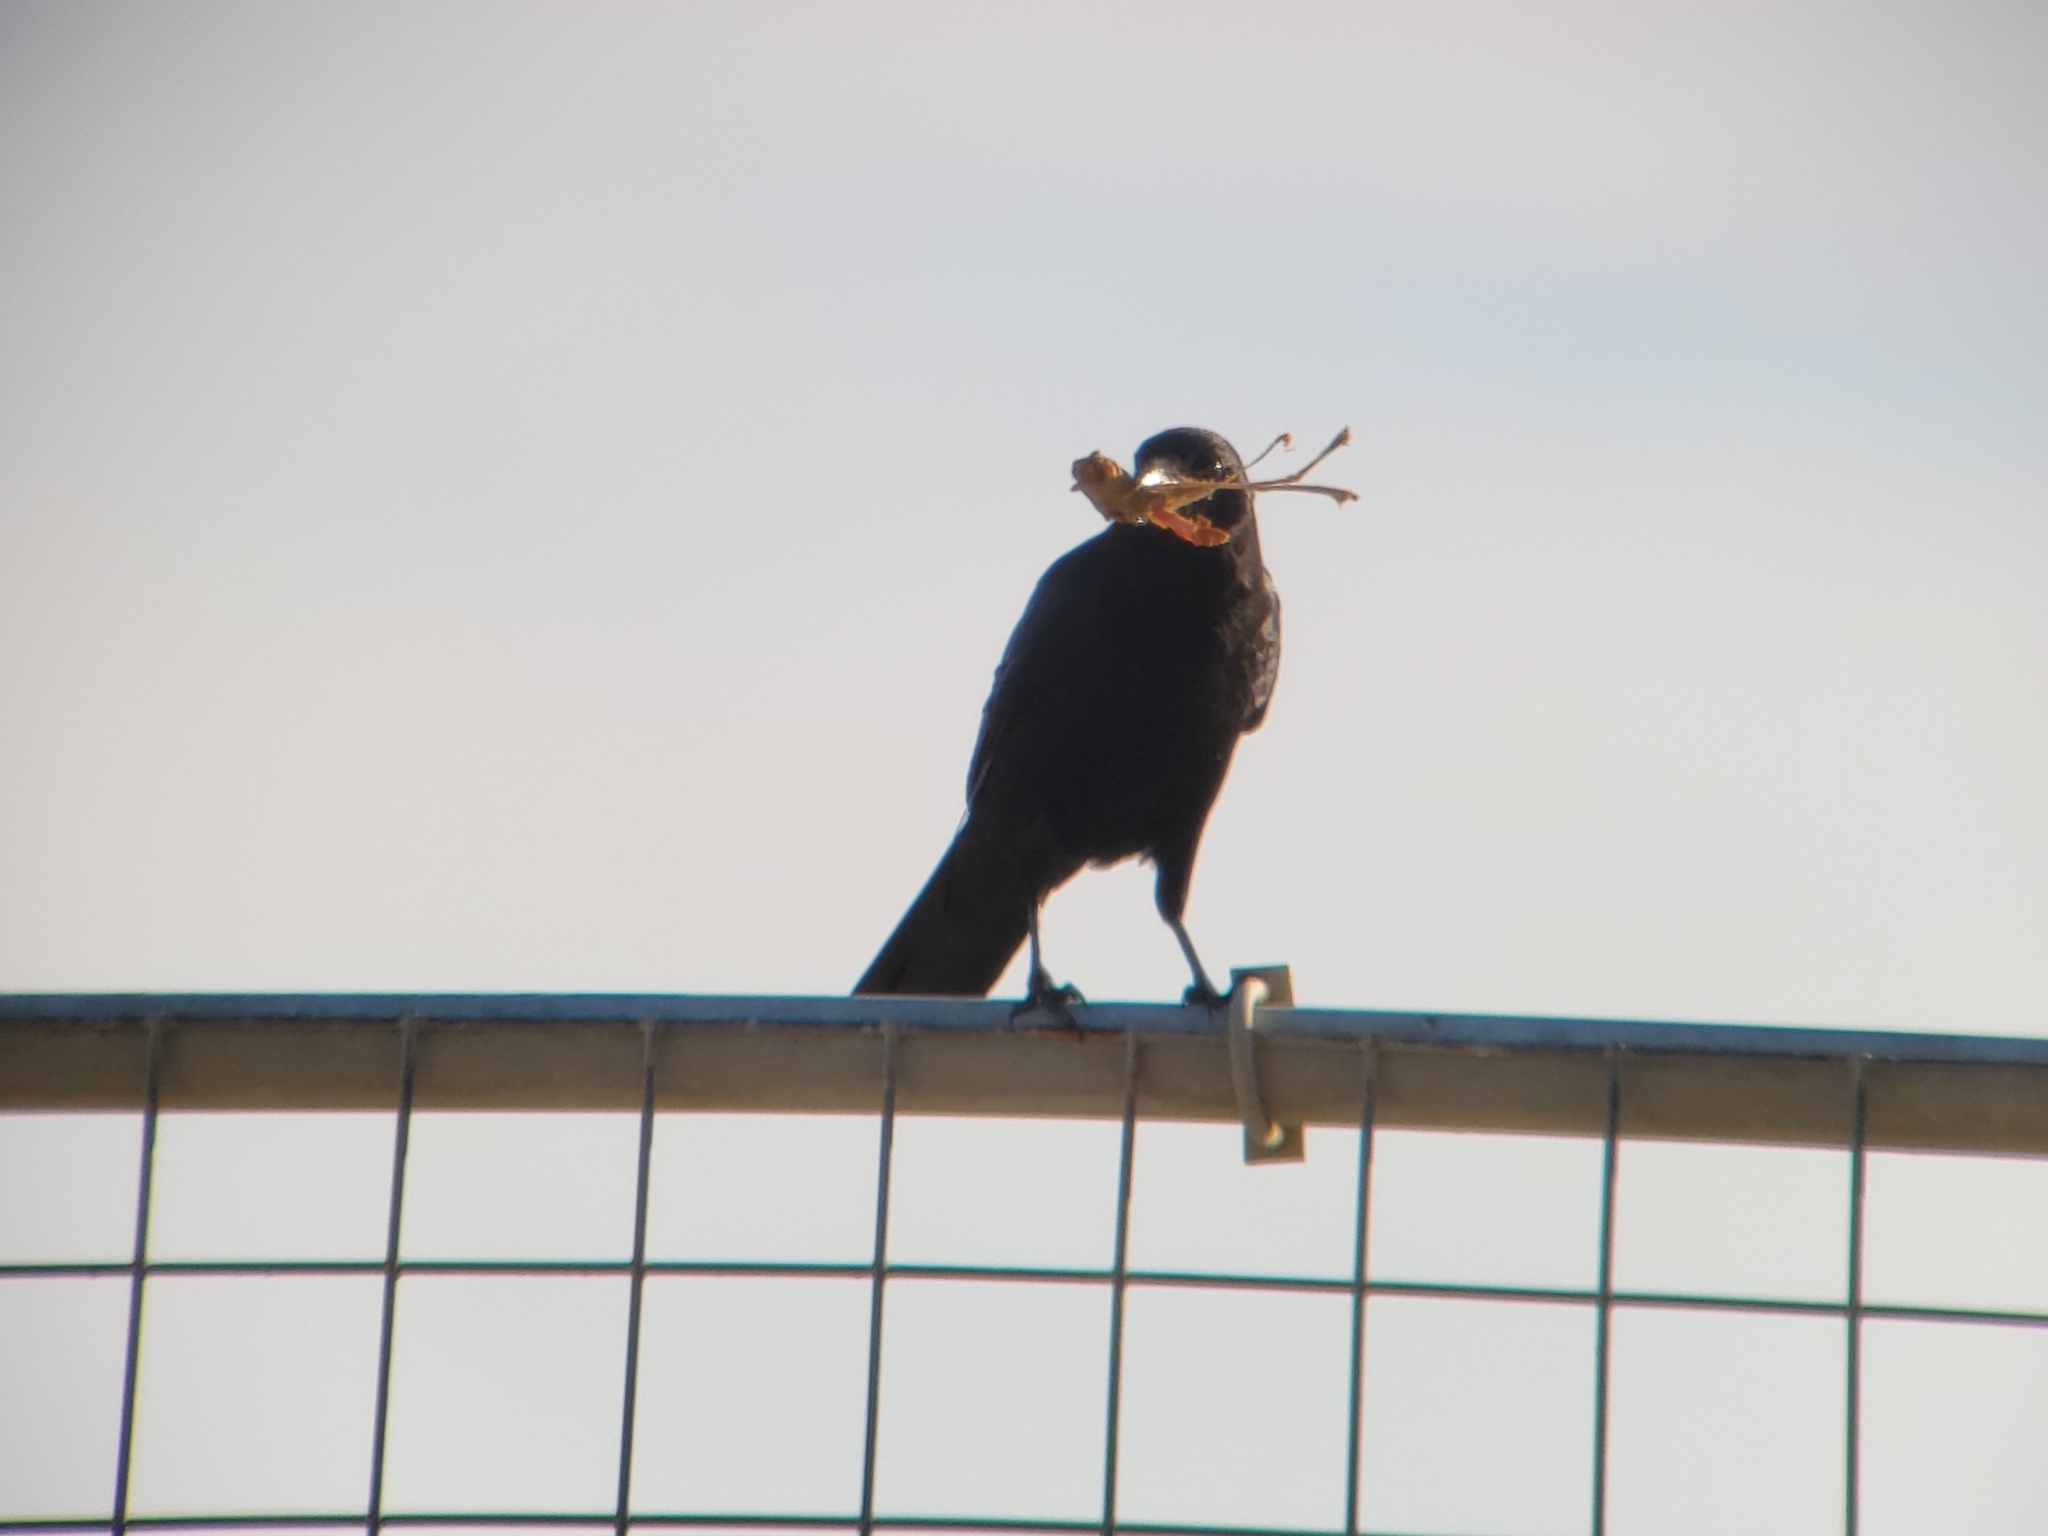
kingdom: Animalia
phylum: Chordata
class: Aves
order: Passeriformes
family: Corvidae
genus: Corvus
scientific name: Corvus brachyrhynchos
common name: American crow
